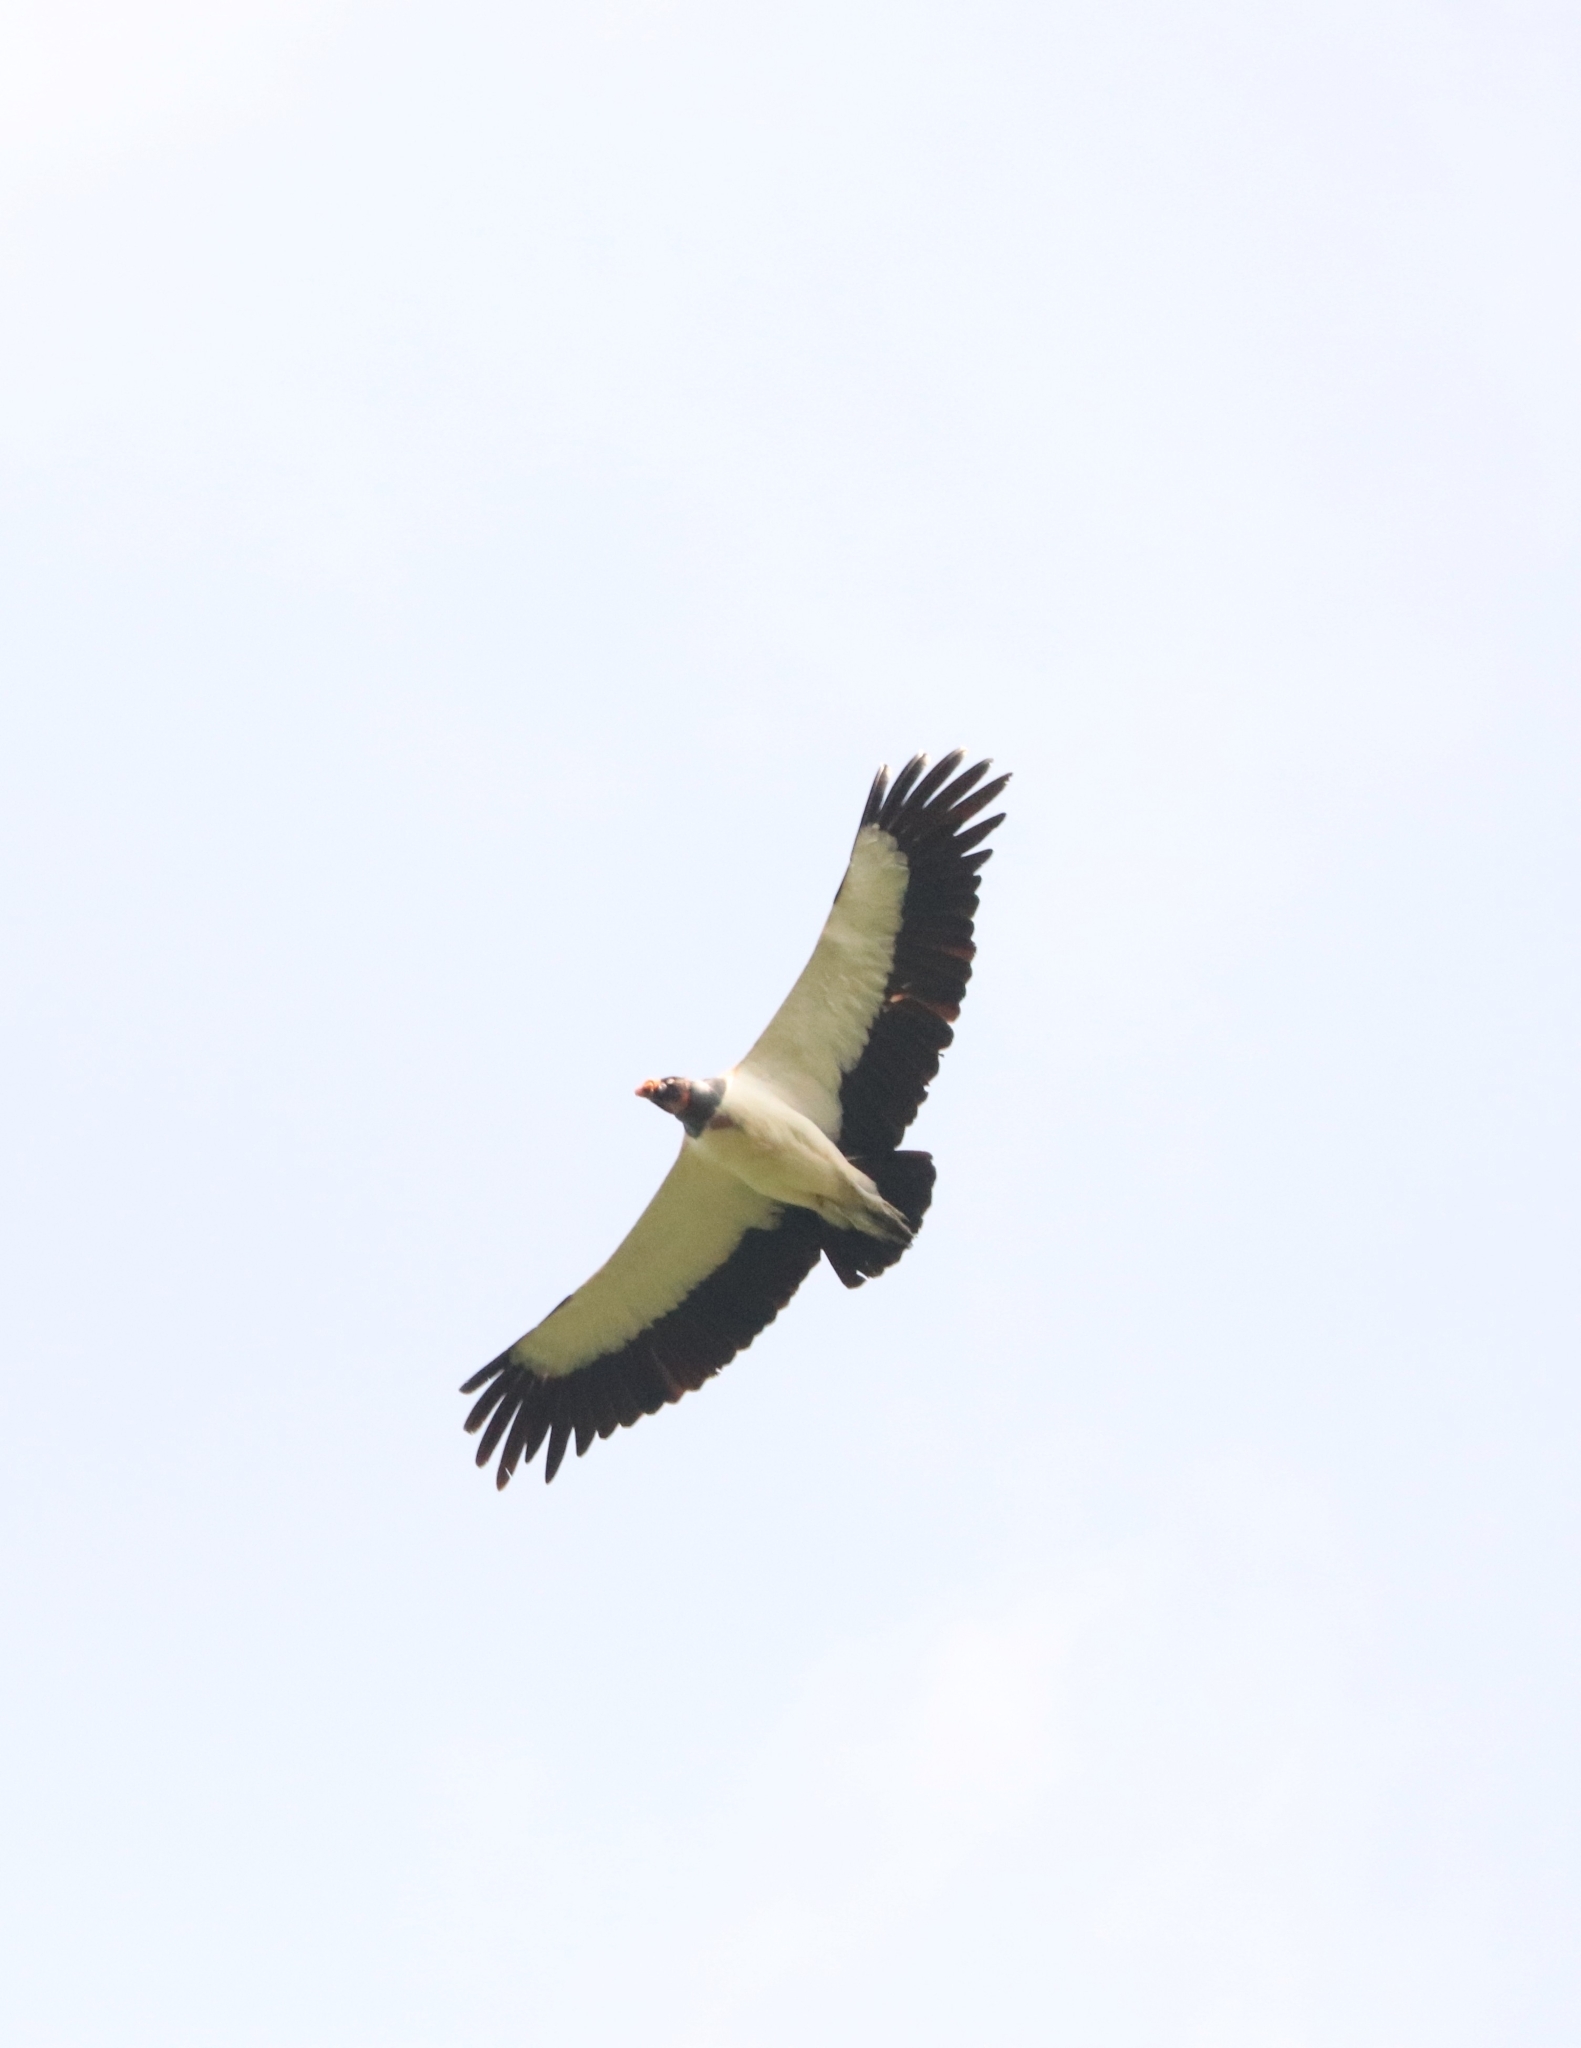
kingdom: Animalia
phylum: Chordata
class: Aves
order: Accipitriformes
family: Cathartidae
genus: Sarcoramphus
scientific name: Sarcoramphus papa
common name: King vulture
